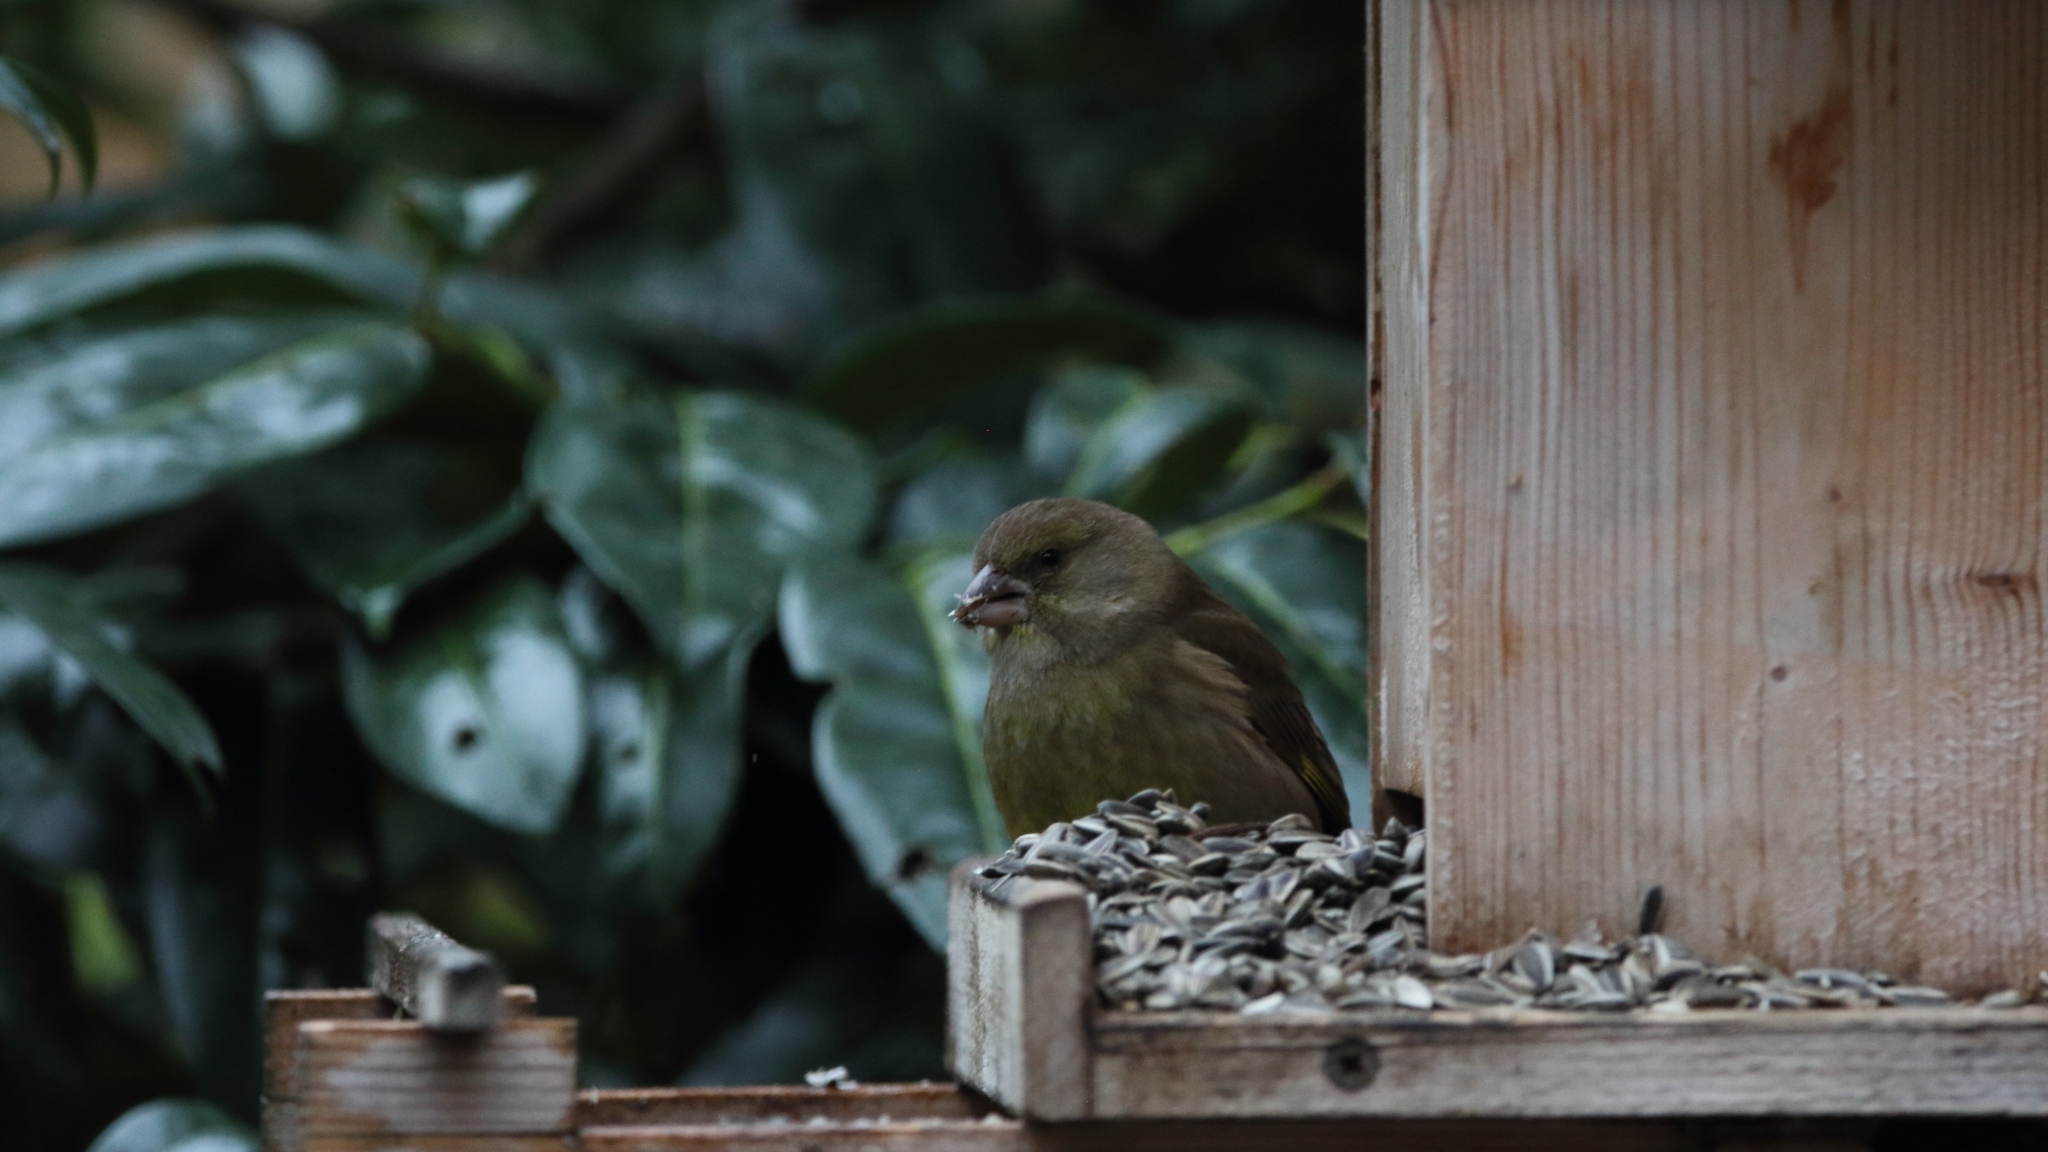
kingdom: Plantae
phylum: Tracheophyta
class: Liliopsida
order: Poales
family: Poaceae
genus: Chloris
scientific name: Chloris chloris
